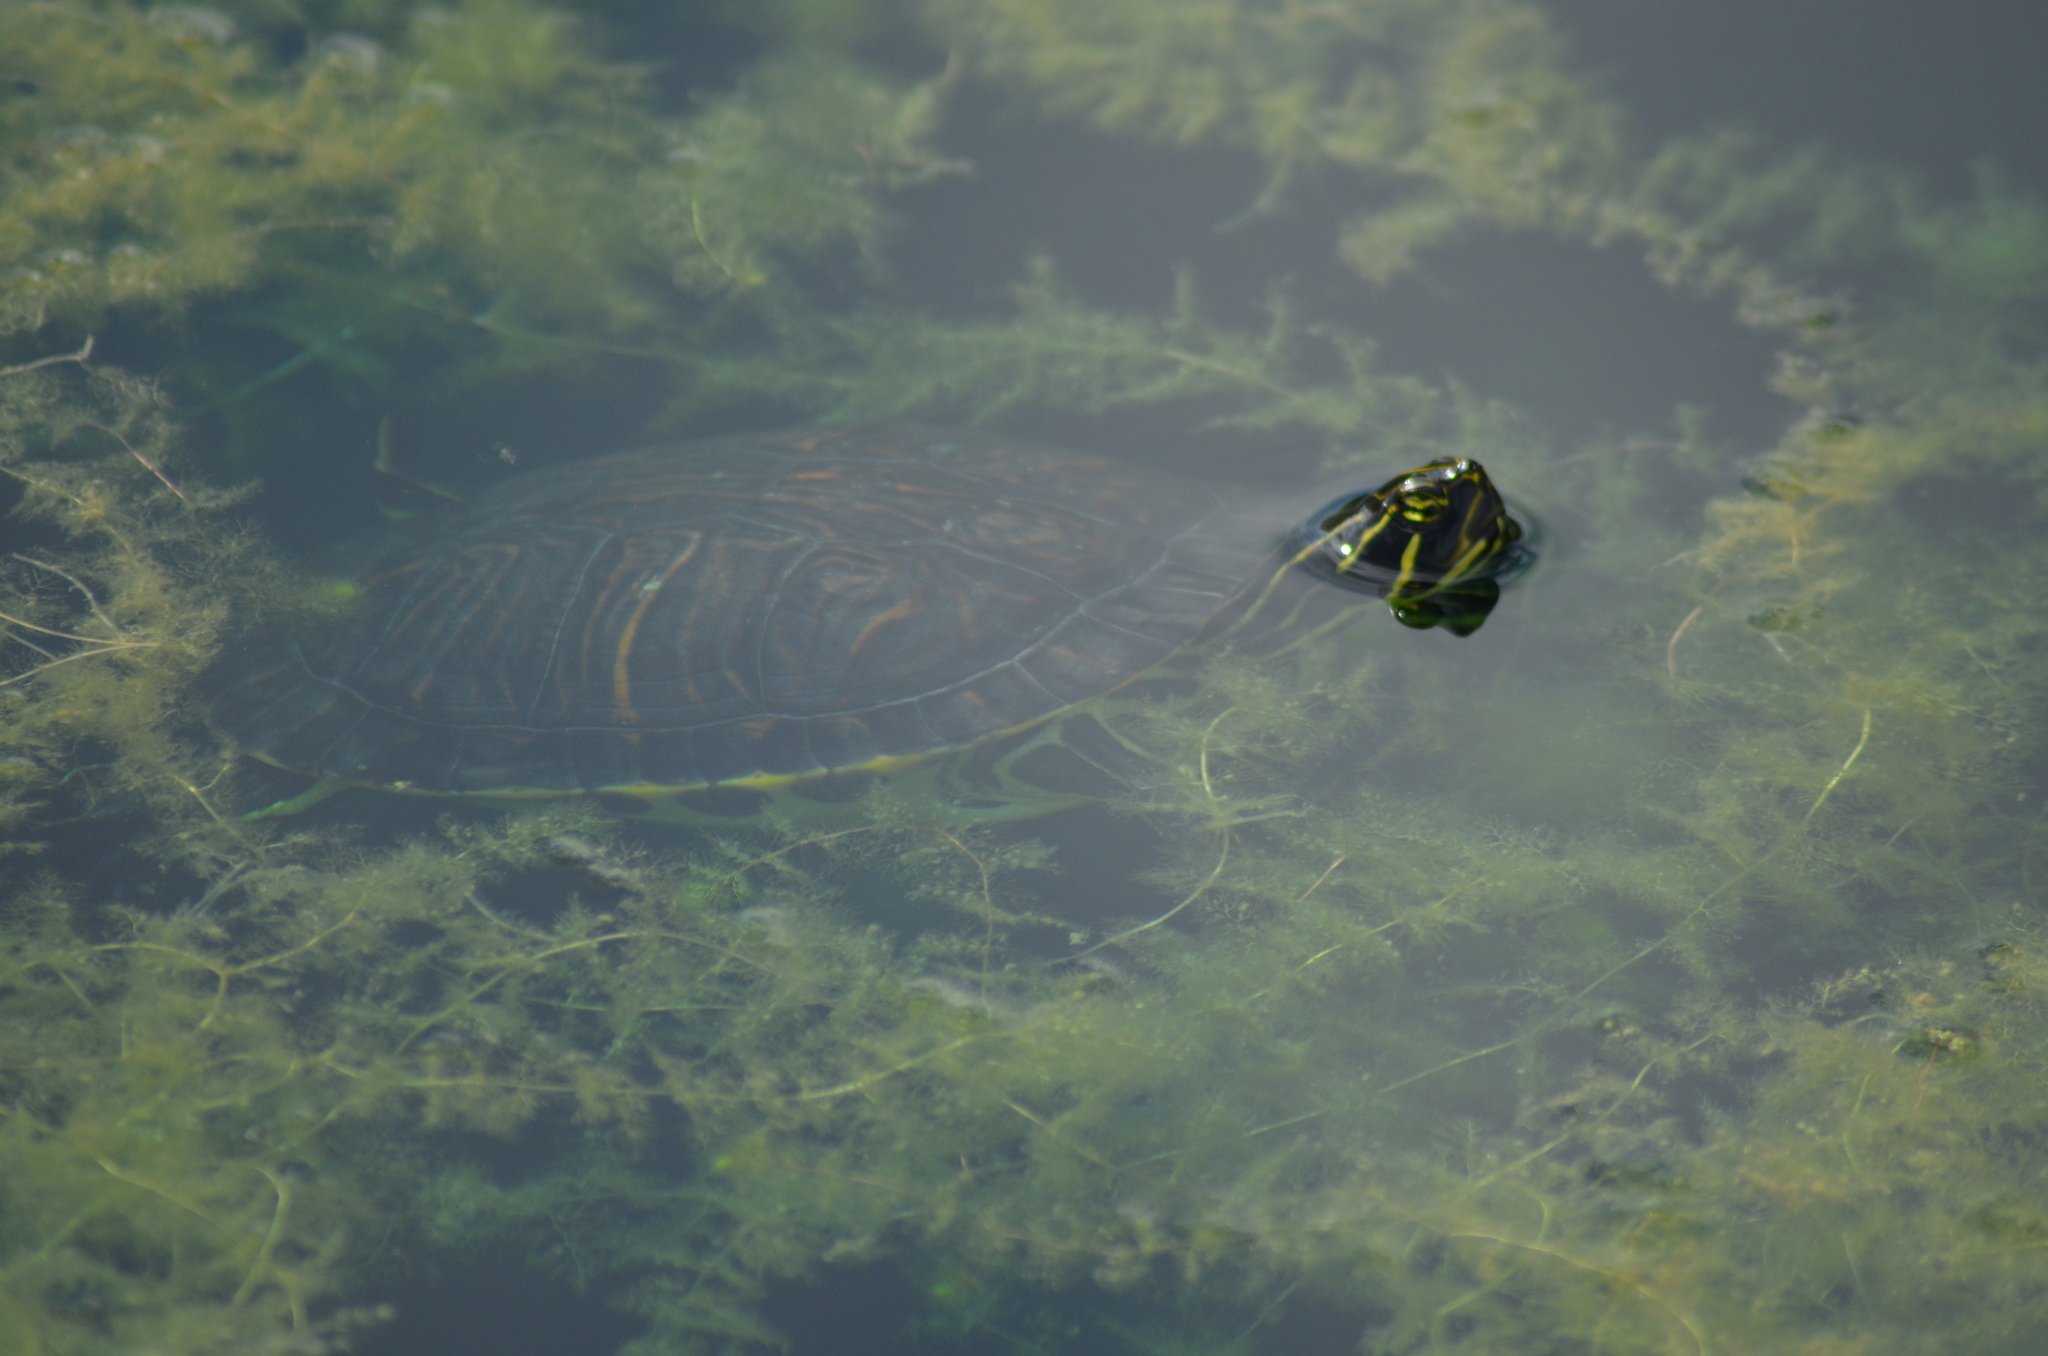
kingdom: Animalia
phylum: Chordata
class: Testudines
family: Emydidae
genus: Pseudemys
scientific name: Pseudemys concinna
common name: Eastern river cooter
